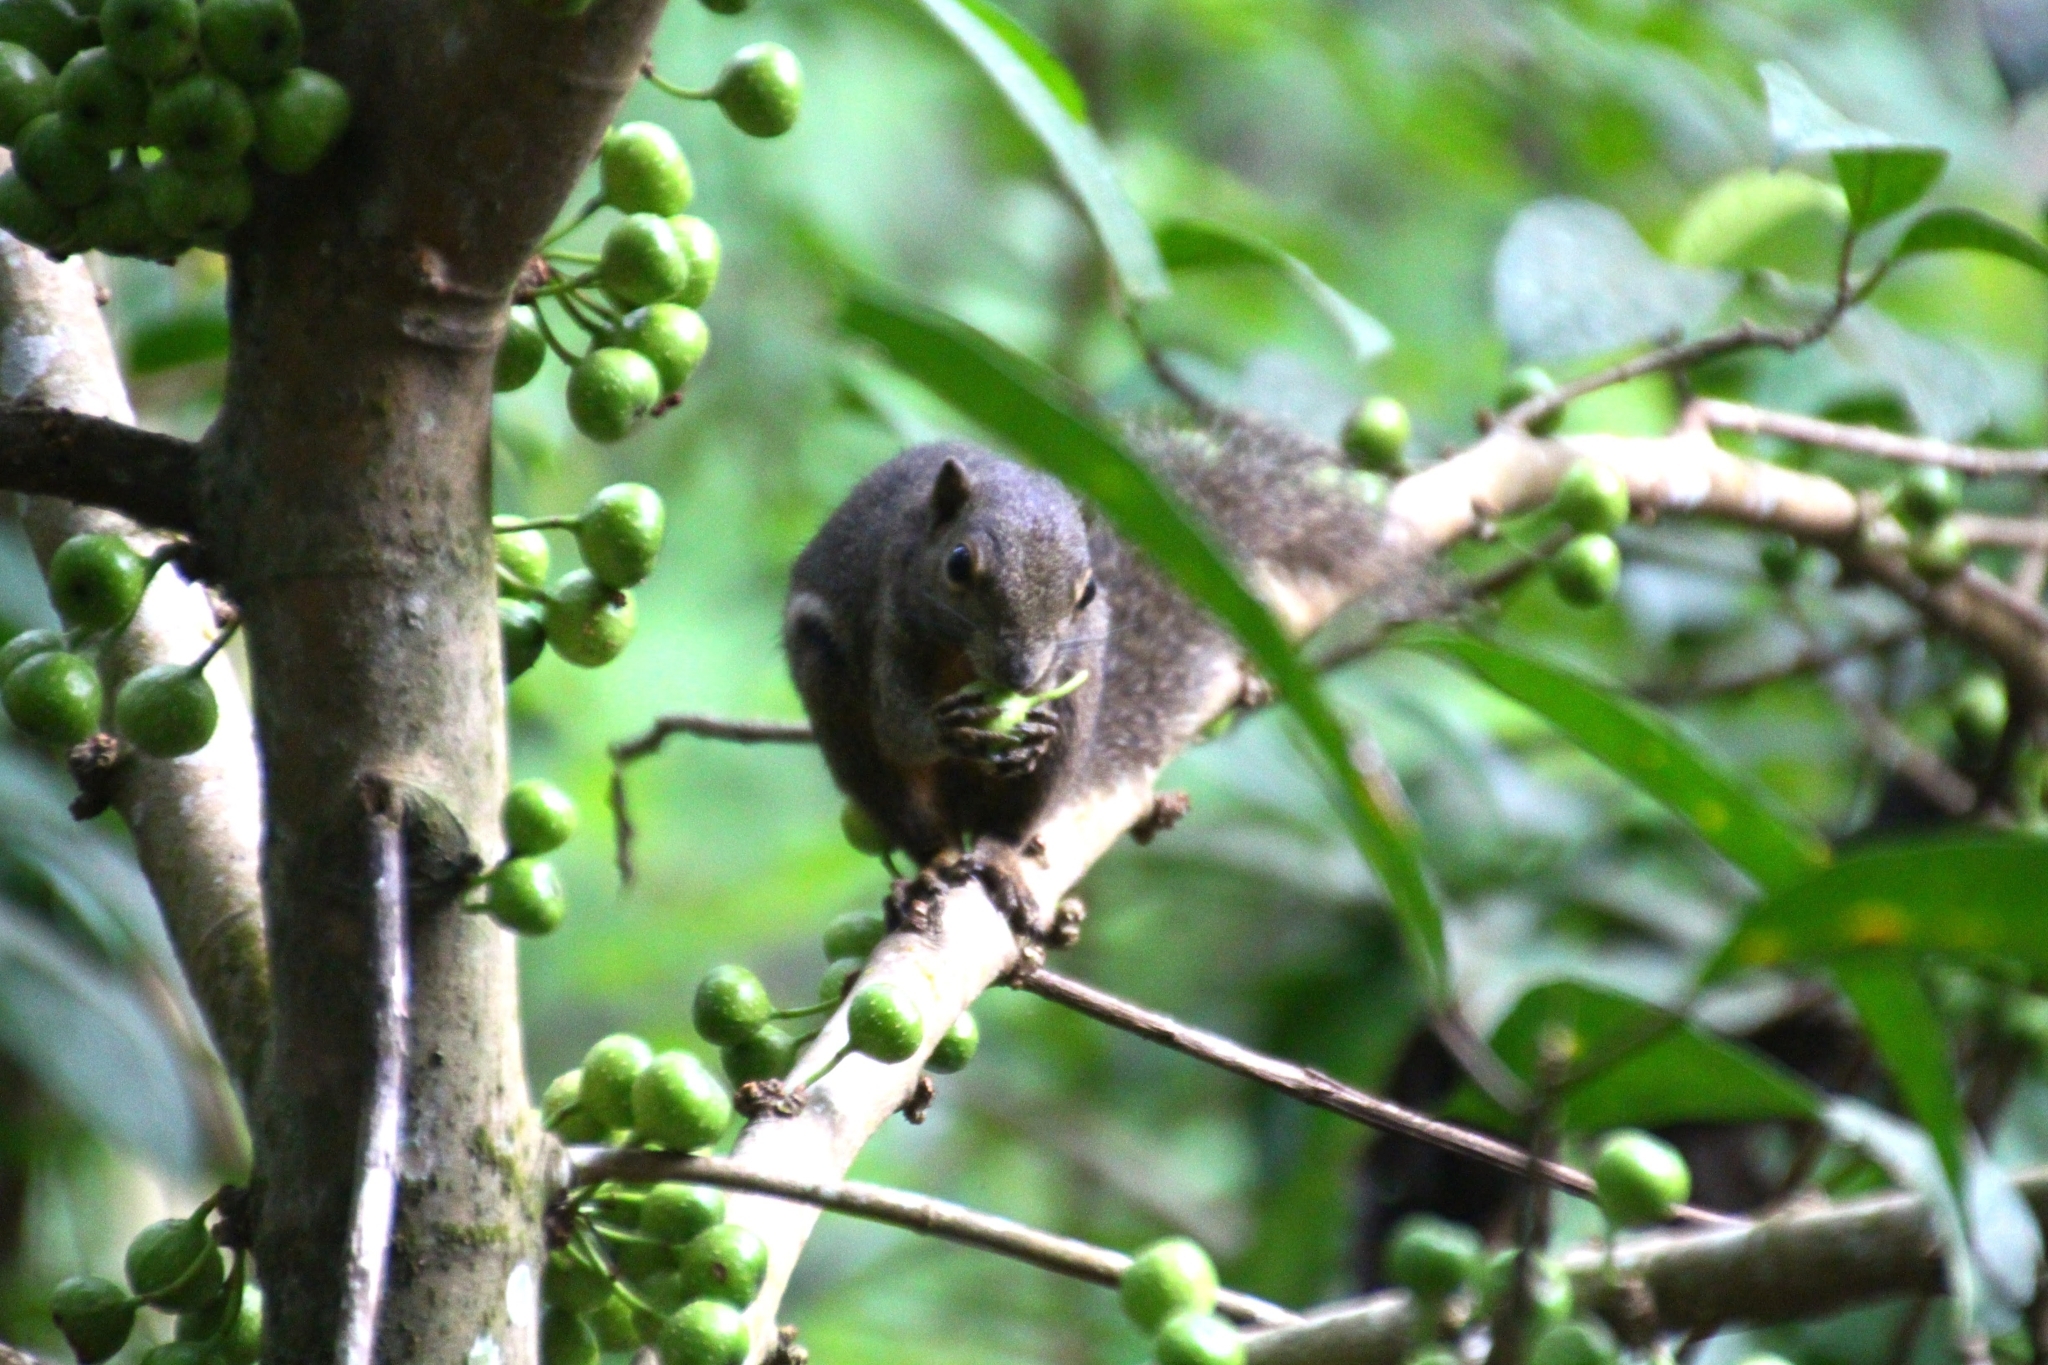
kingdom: Animalia
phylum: Chordata
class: Mammalia
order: Rodentia
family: Sciuridae
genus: Callosciurus
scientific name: Callosciurus notatus
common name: Plantain squirrel
